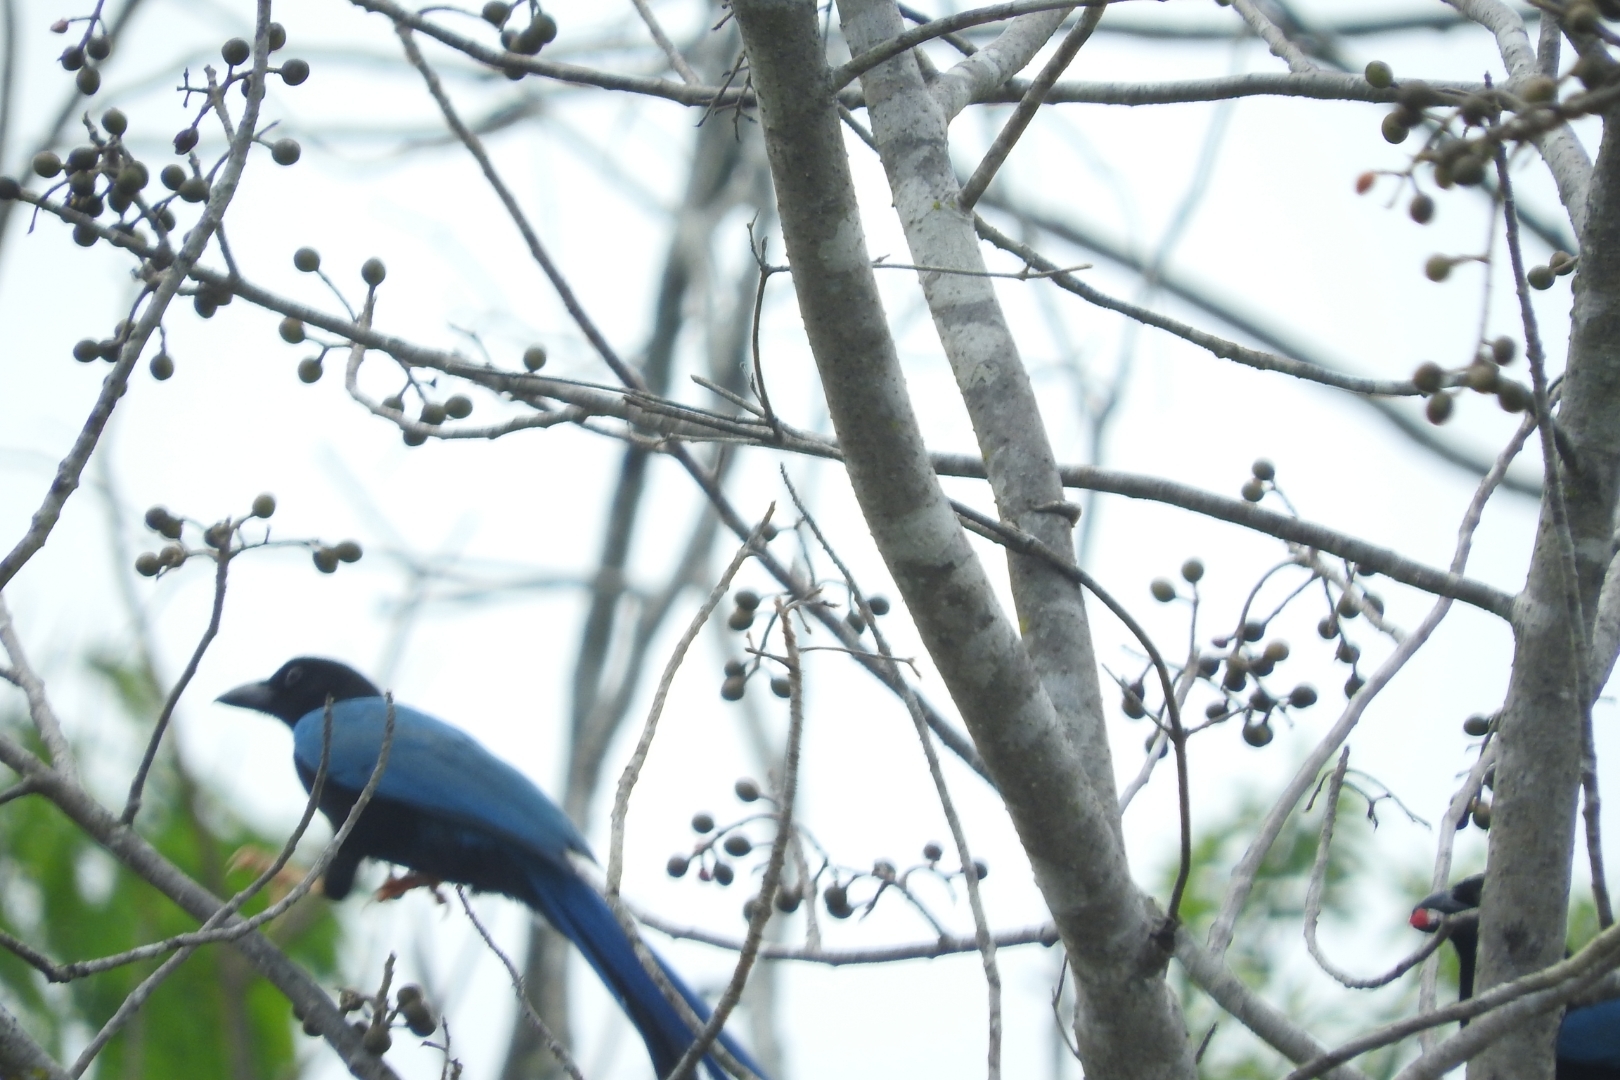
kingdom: Animalia
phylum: Chordata
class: Aves
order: Passeriformes
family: Corvidae
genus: Cyanocorax
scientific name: Cyanocorax yucatanicus
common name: Yucatan jay
